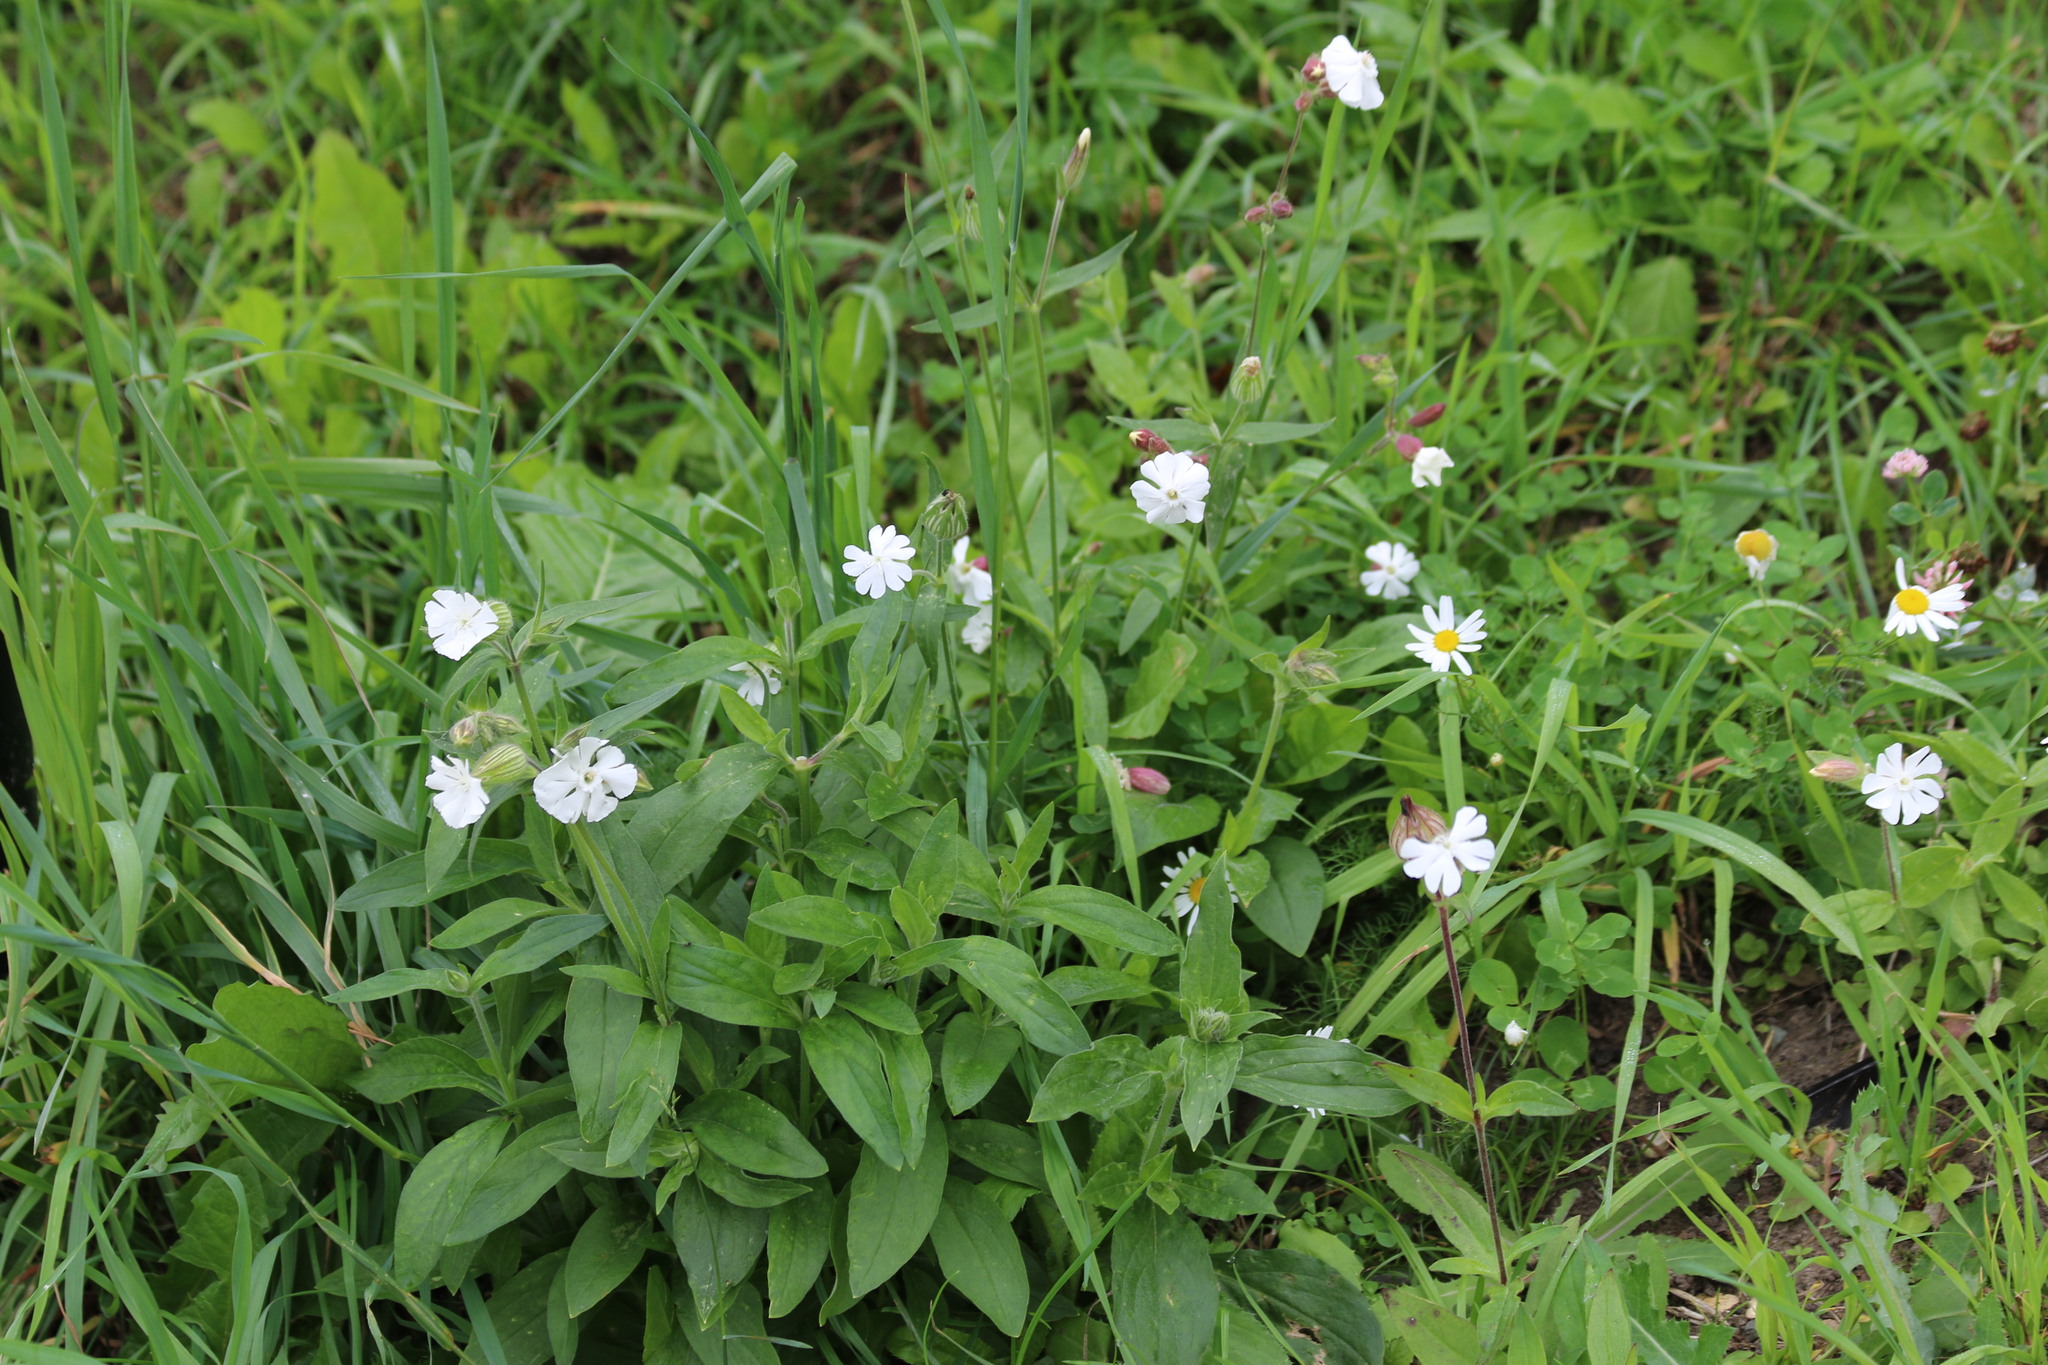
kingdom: Plantae
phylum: Tracheophyta
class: Magnoliopsida
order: Caryophyllales
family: Caryophyllaceae
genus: Silene
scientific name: Silene latifolia
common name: White campion
